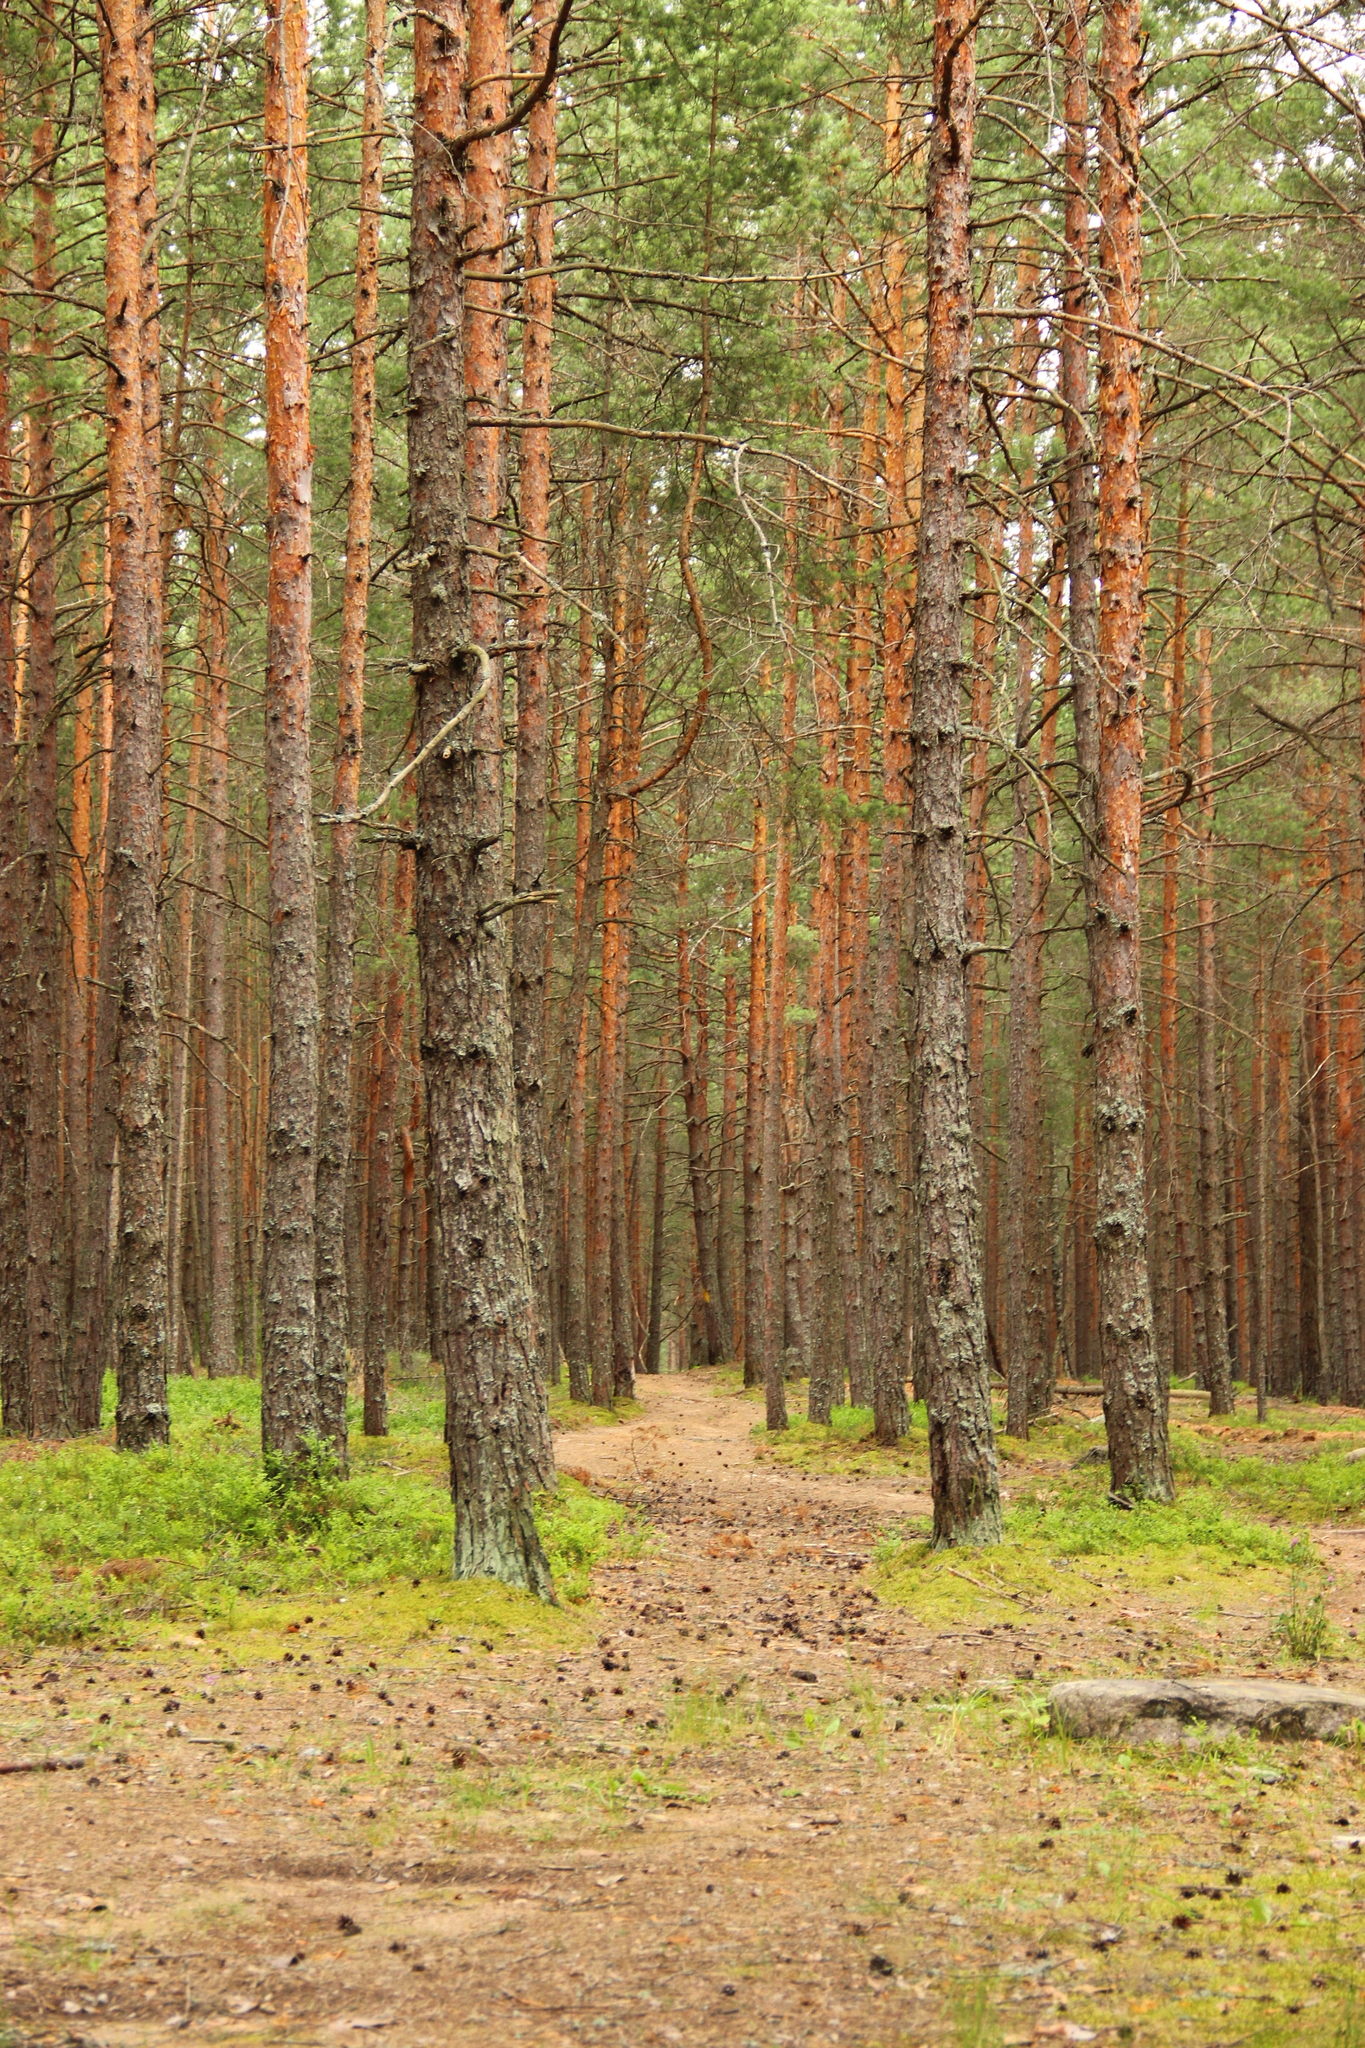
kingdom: Plantae
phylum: Tracheophyta
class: Pinopsida
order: Pinales
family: Pinaceae
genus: Pinus
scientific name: Pinus sylvestris
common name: Scots pine
